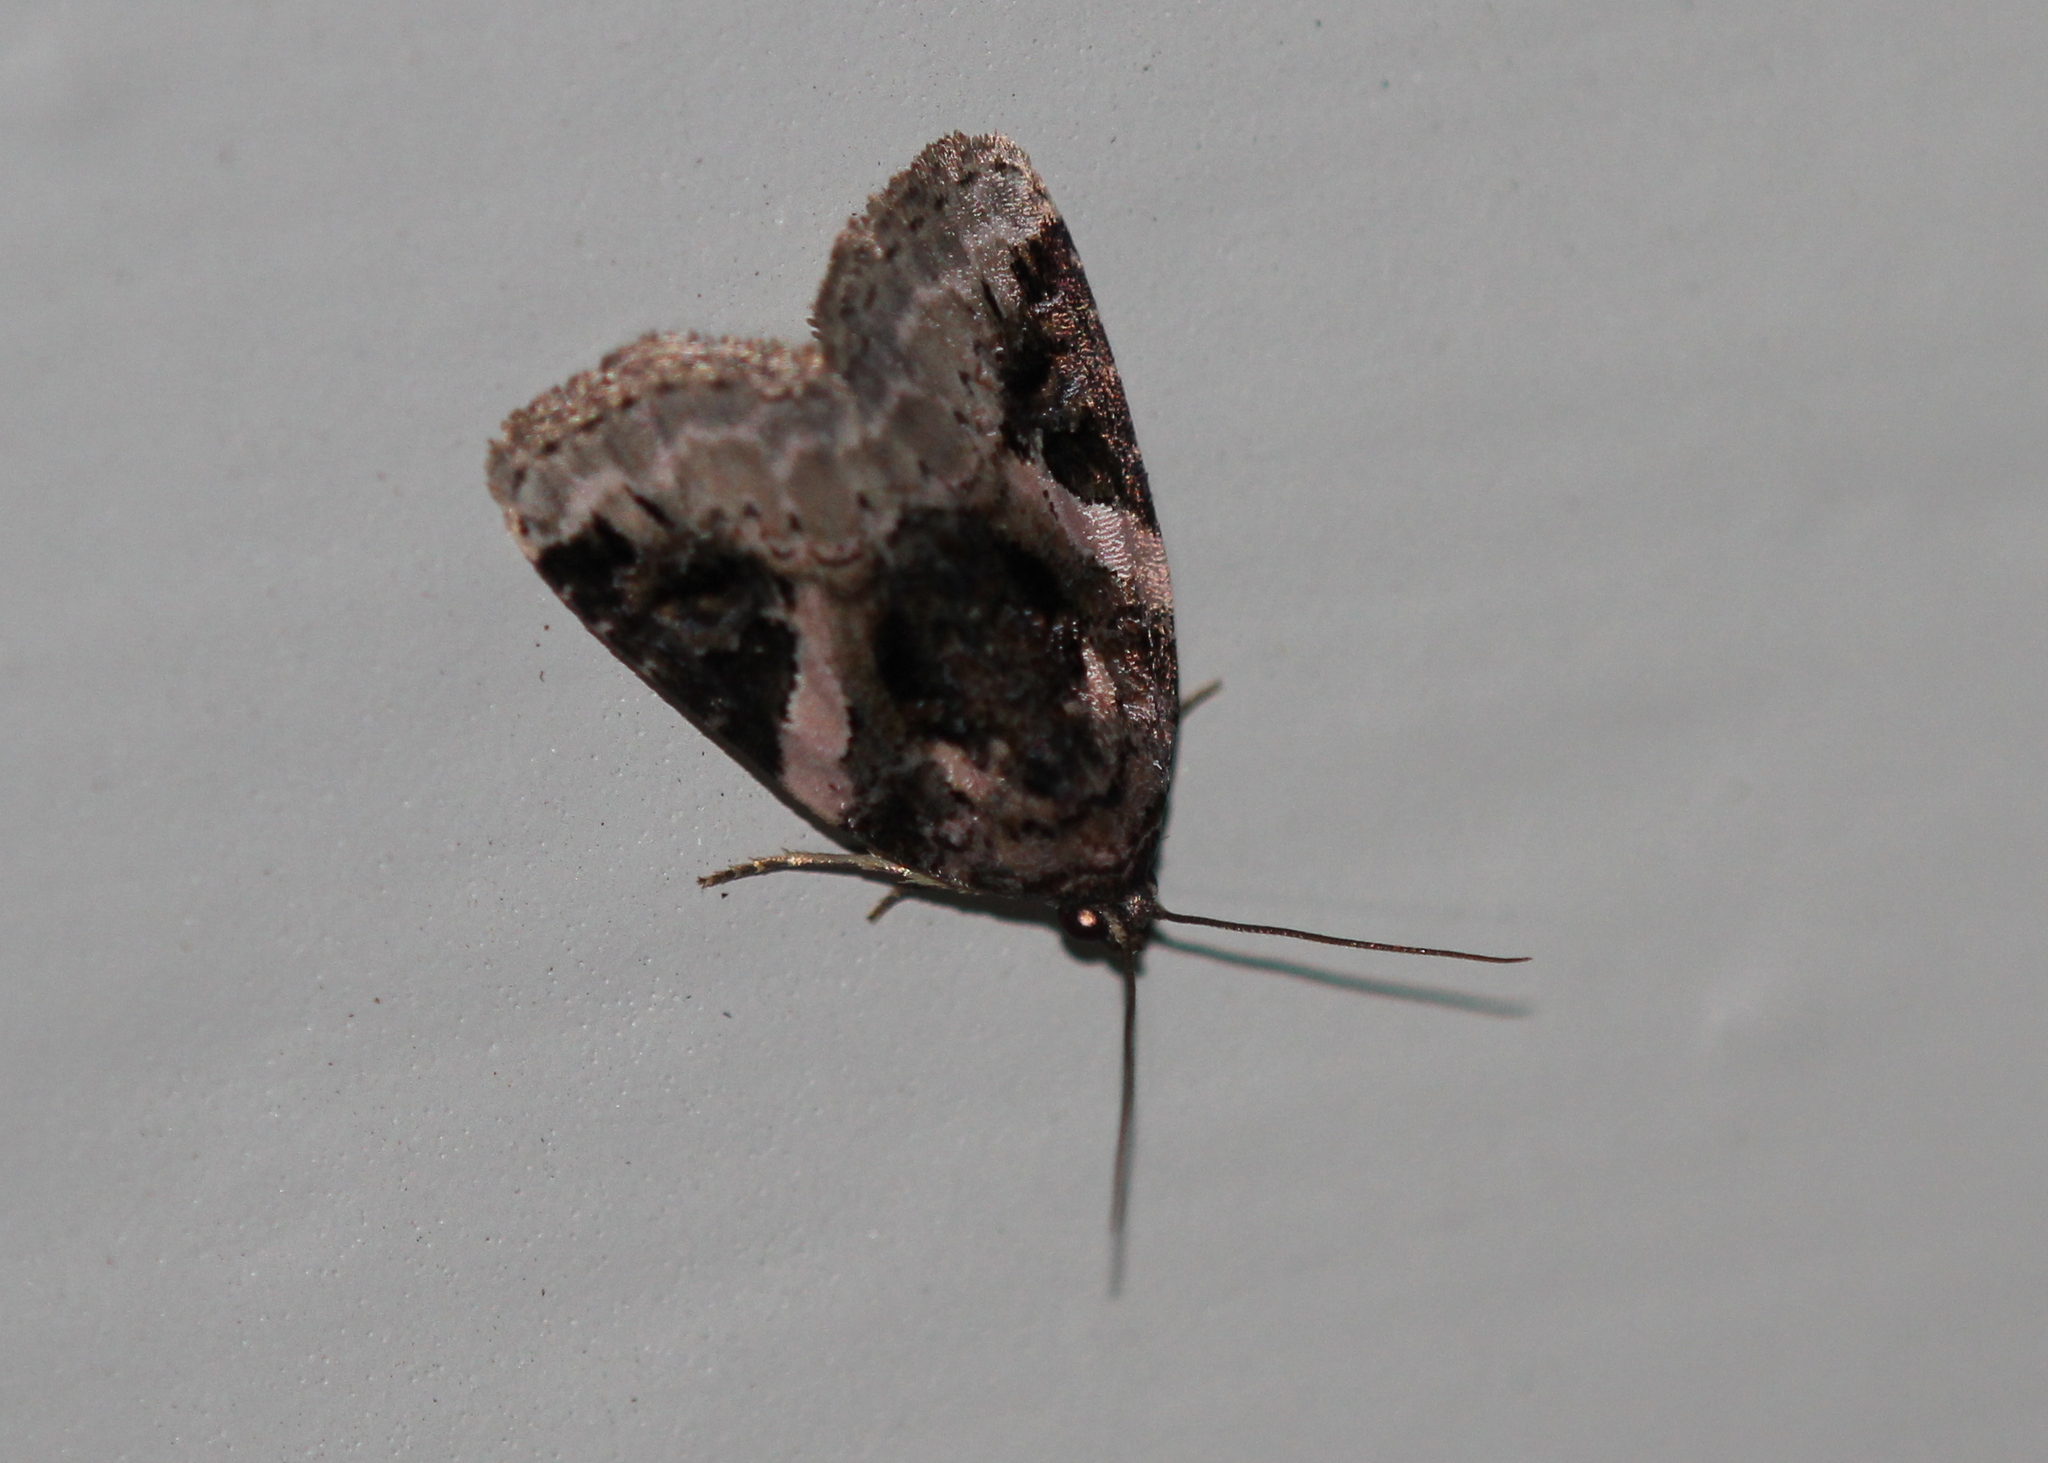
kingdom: Animalia
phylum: Arthropoda
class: Insecta
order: Lepidoptera
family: Noctuidae
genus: Pseudeustrotia
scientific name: Pseudeustrotia carneola
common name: Pink-barred lithacodia moth
